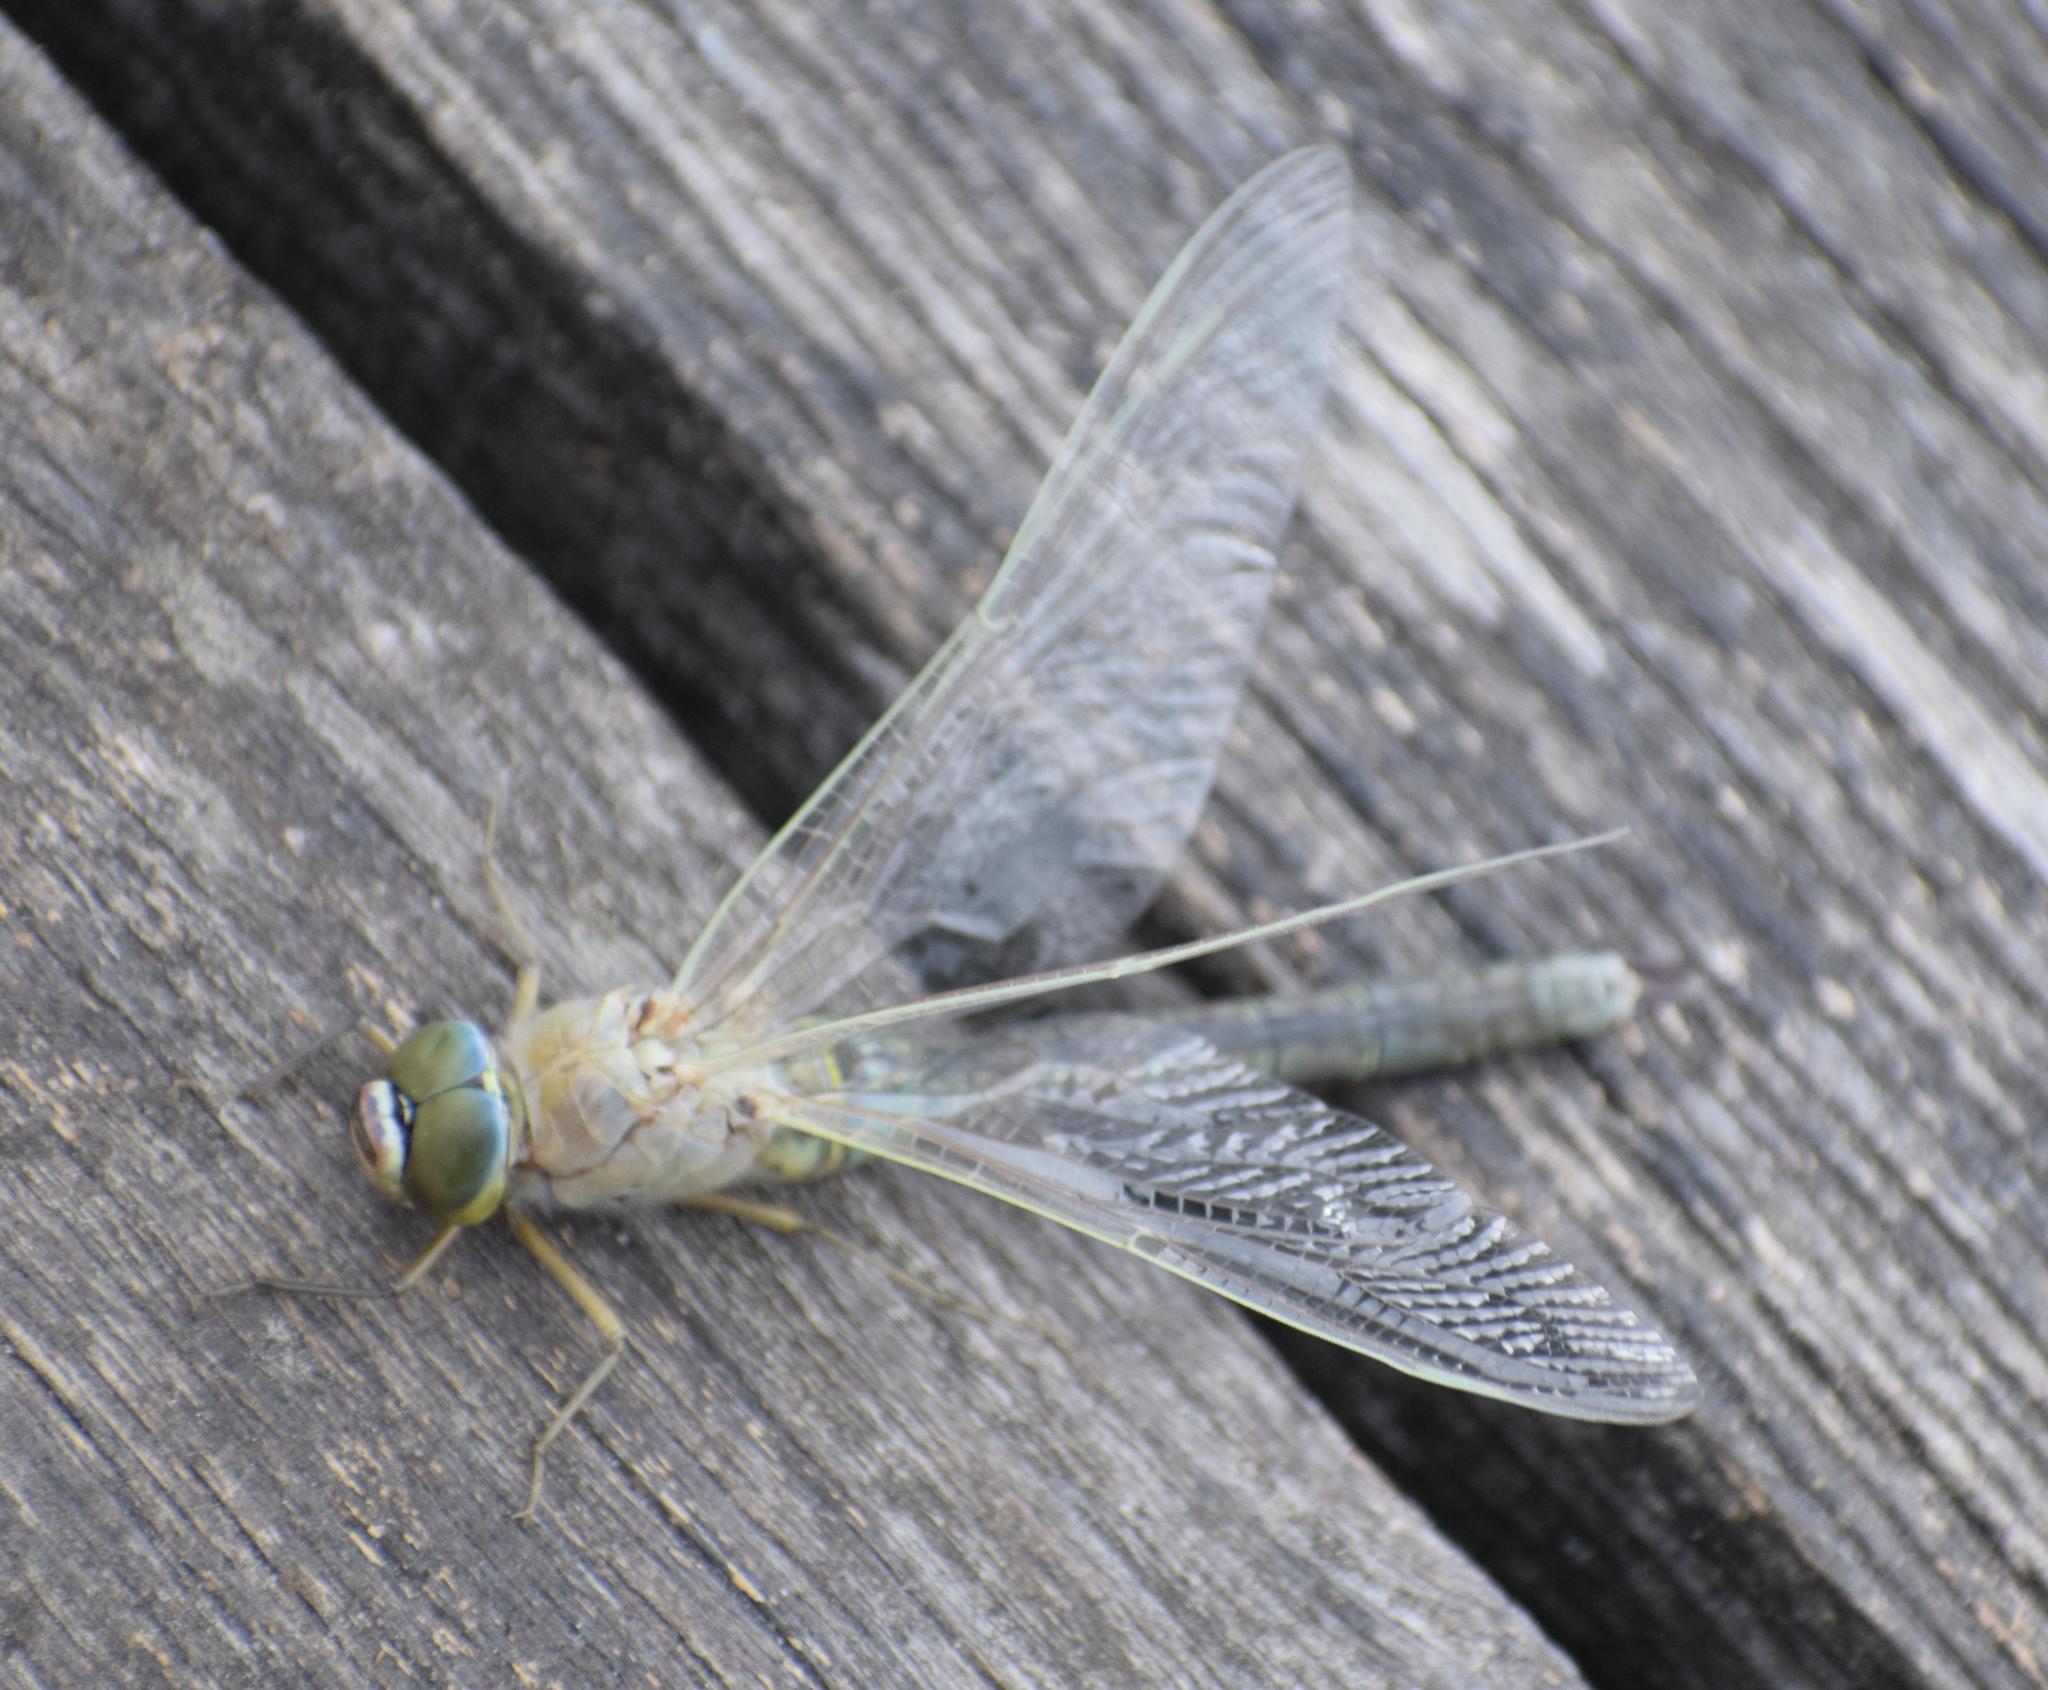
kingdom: Animalia
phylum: Arthropoda
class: Insecta
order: Odonata
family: Aeshnidae
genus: Anax
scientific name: Anax parthenope
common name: Lesser emperor
